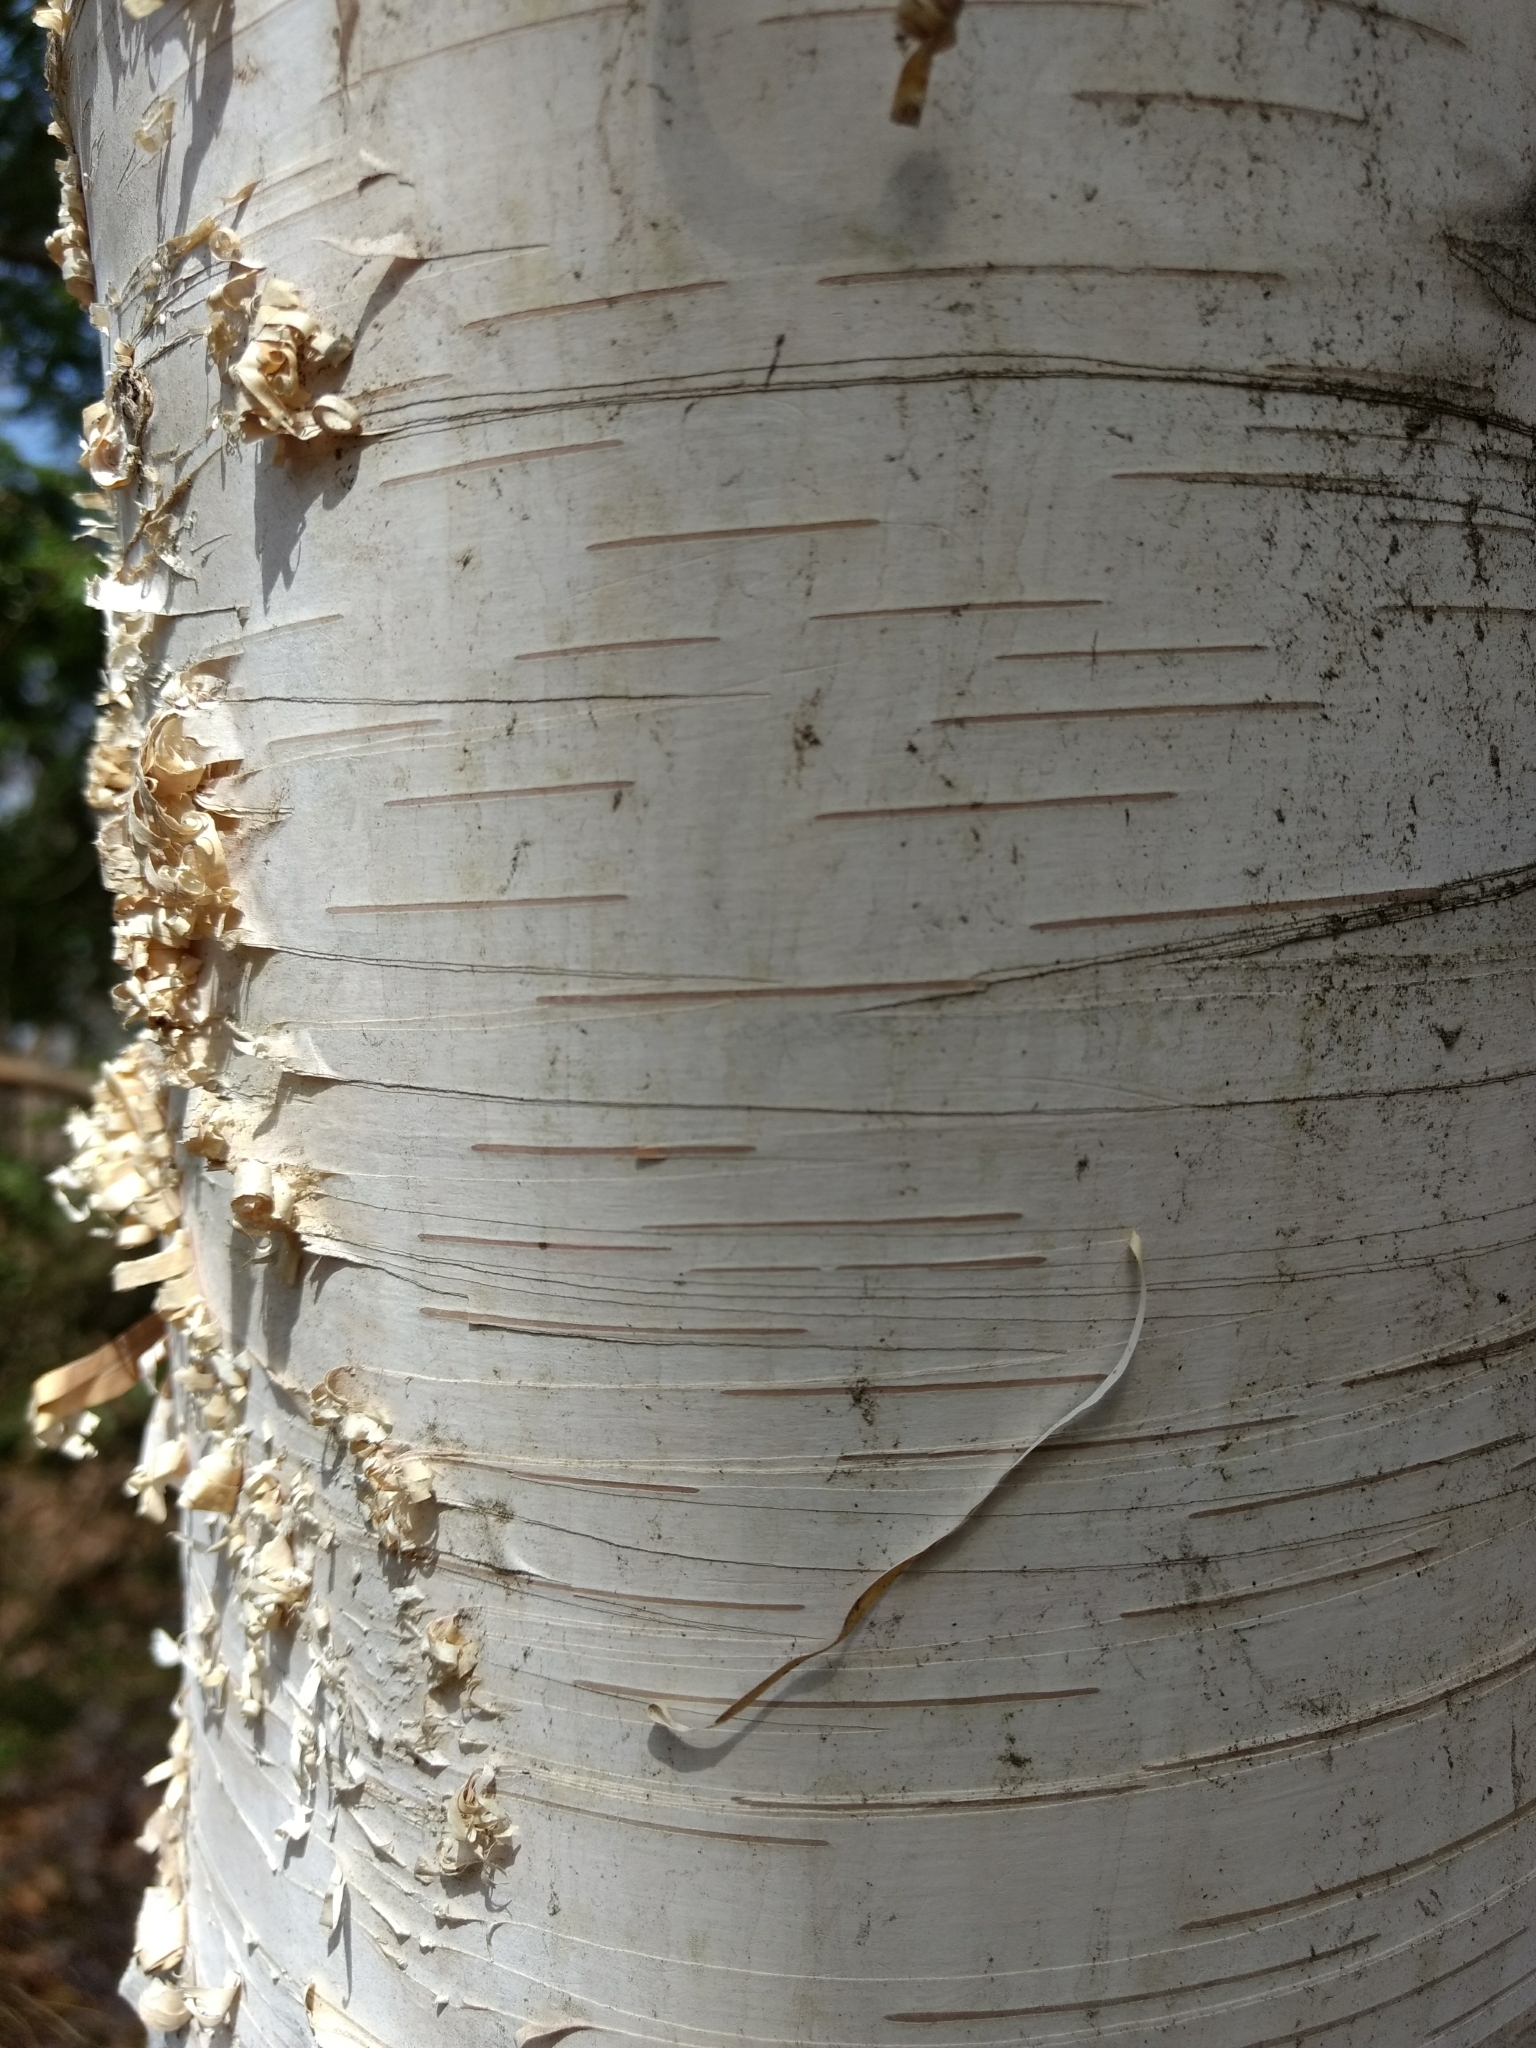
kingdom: Plantae
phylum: Tracheophyta
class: Magnoliopsida
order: Fagales
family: Betulaceae
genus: Betula
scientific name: Betula papyrifera
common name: Paper birch
